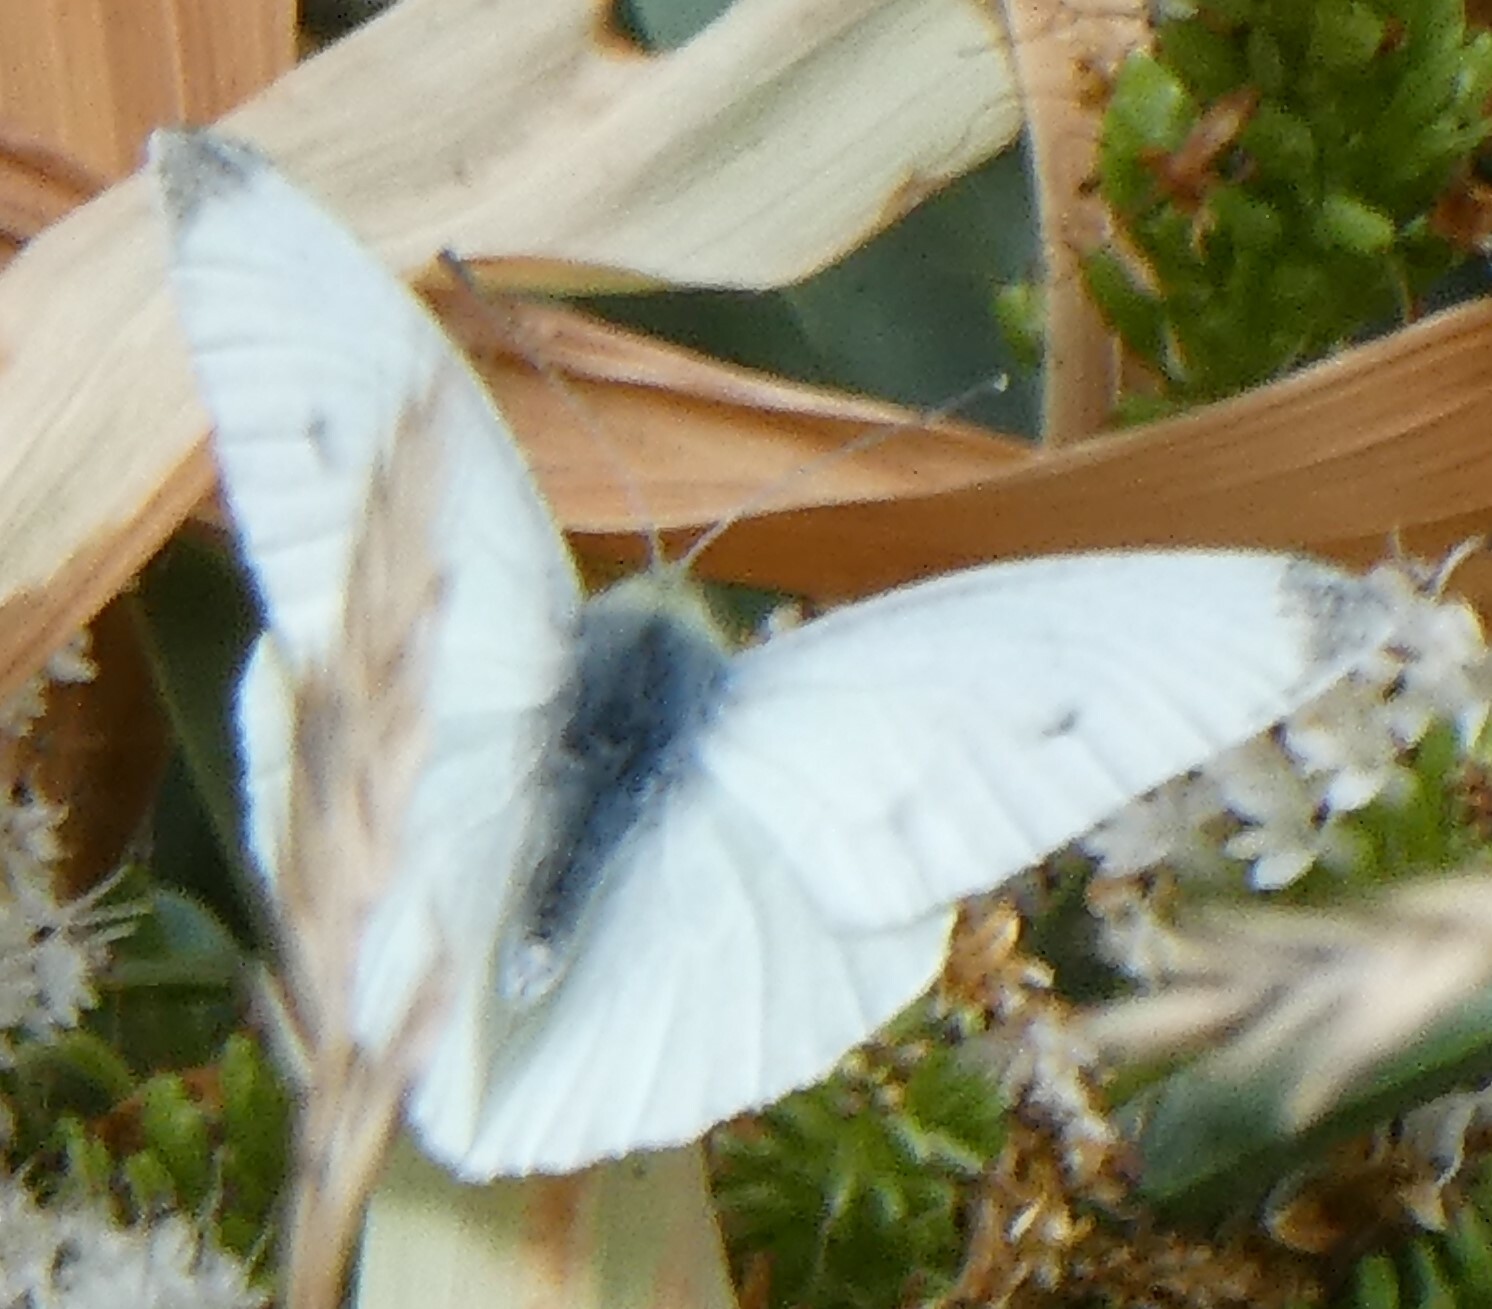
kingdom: Animalia
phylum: Arthropoda
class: Insecta
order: Lepidoptera
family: Pieridae
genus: Pieris
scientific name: Pieris rapae
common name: Small white
